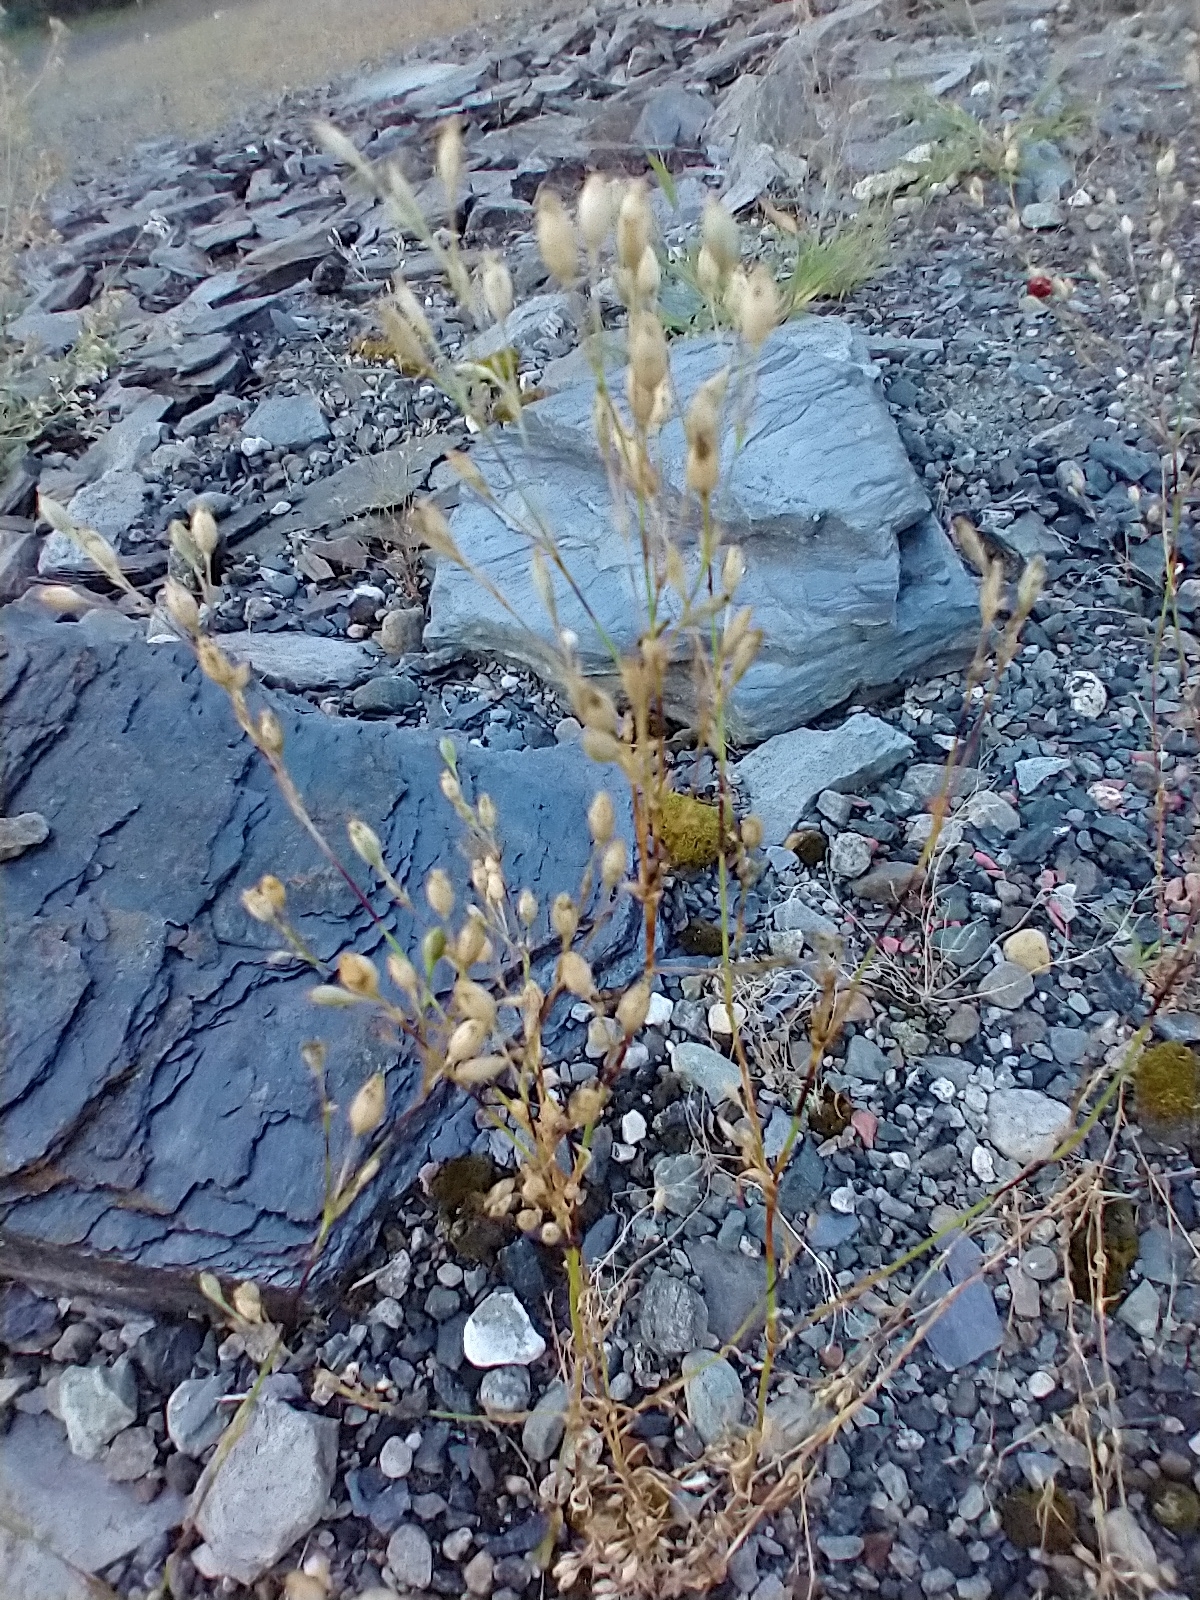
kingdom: Plantae
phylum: Tracheophyta
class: Magnoliopsida
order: Caryophyllales
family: Caryophyllaceae
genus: Silene
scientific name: Silene antirrhina
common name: Sleepy catchfly
